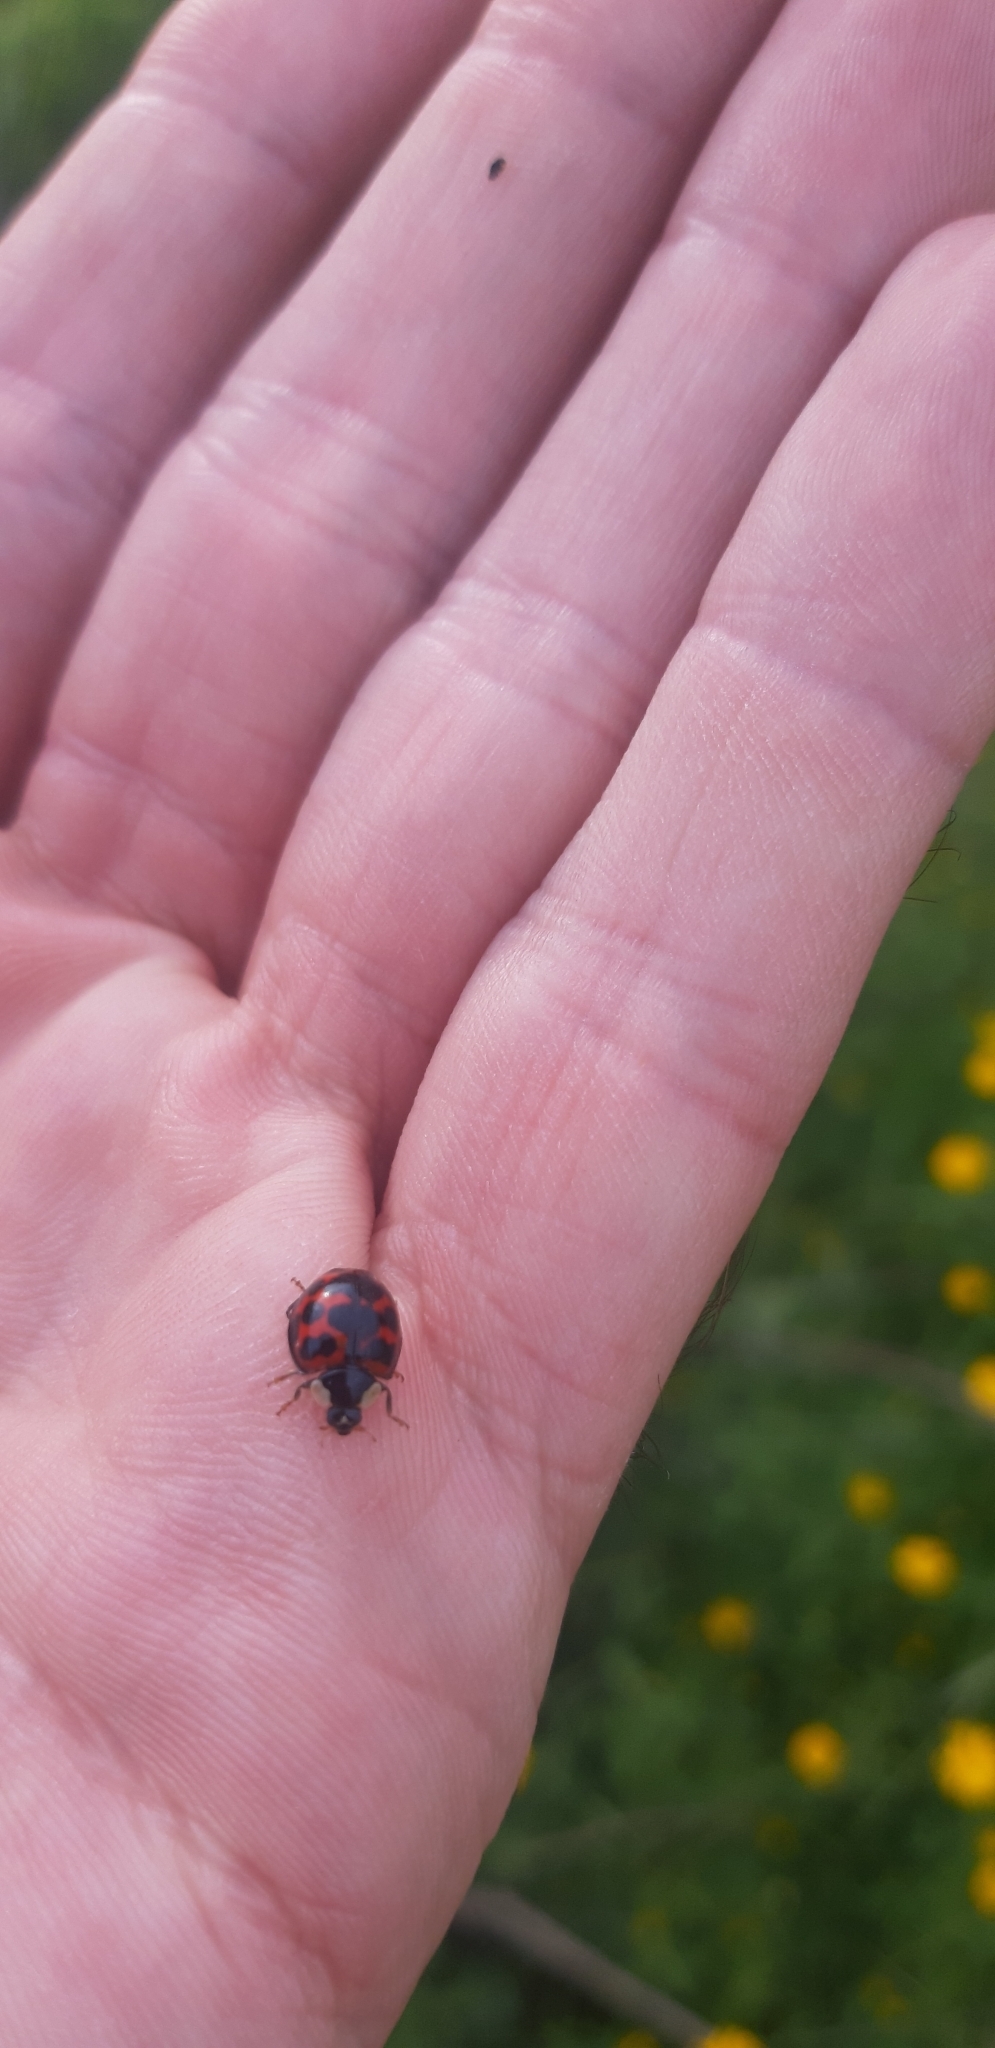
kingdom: Animalia
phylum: Arthropoda
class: Insecta
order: Coleoptera
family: Coccinellidae
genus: Harmonia
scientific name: Harmonia axyridis
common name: Harlequin ladybird
